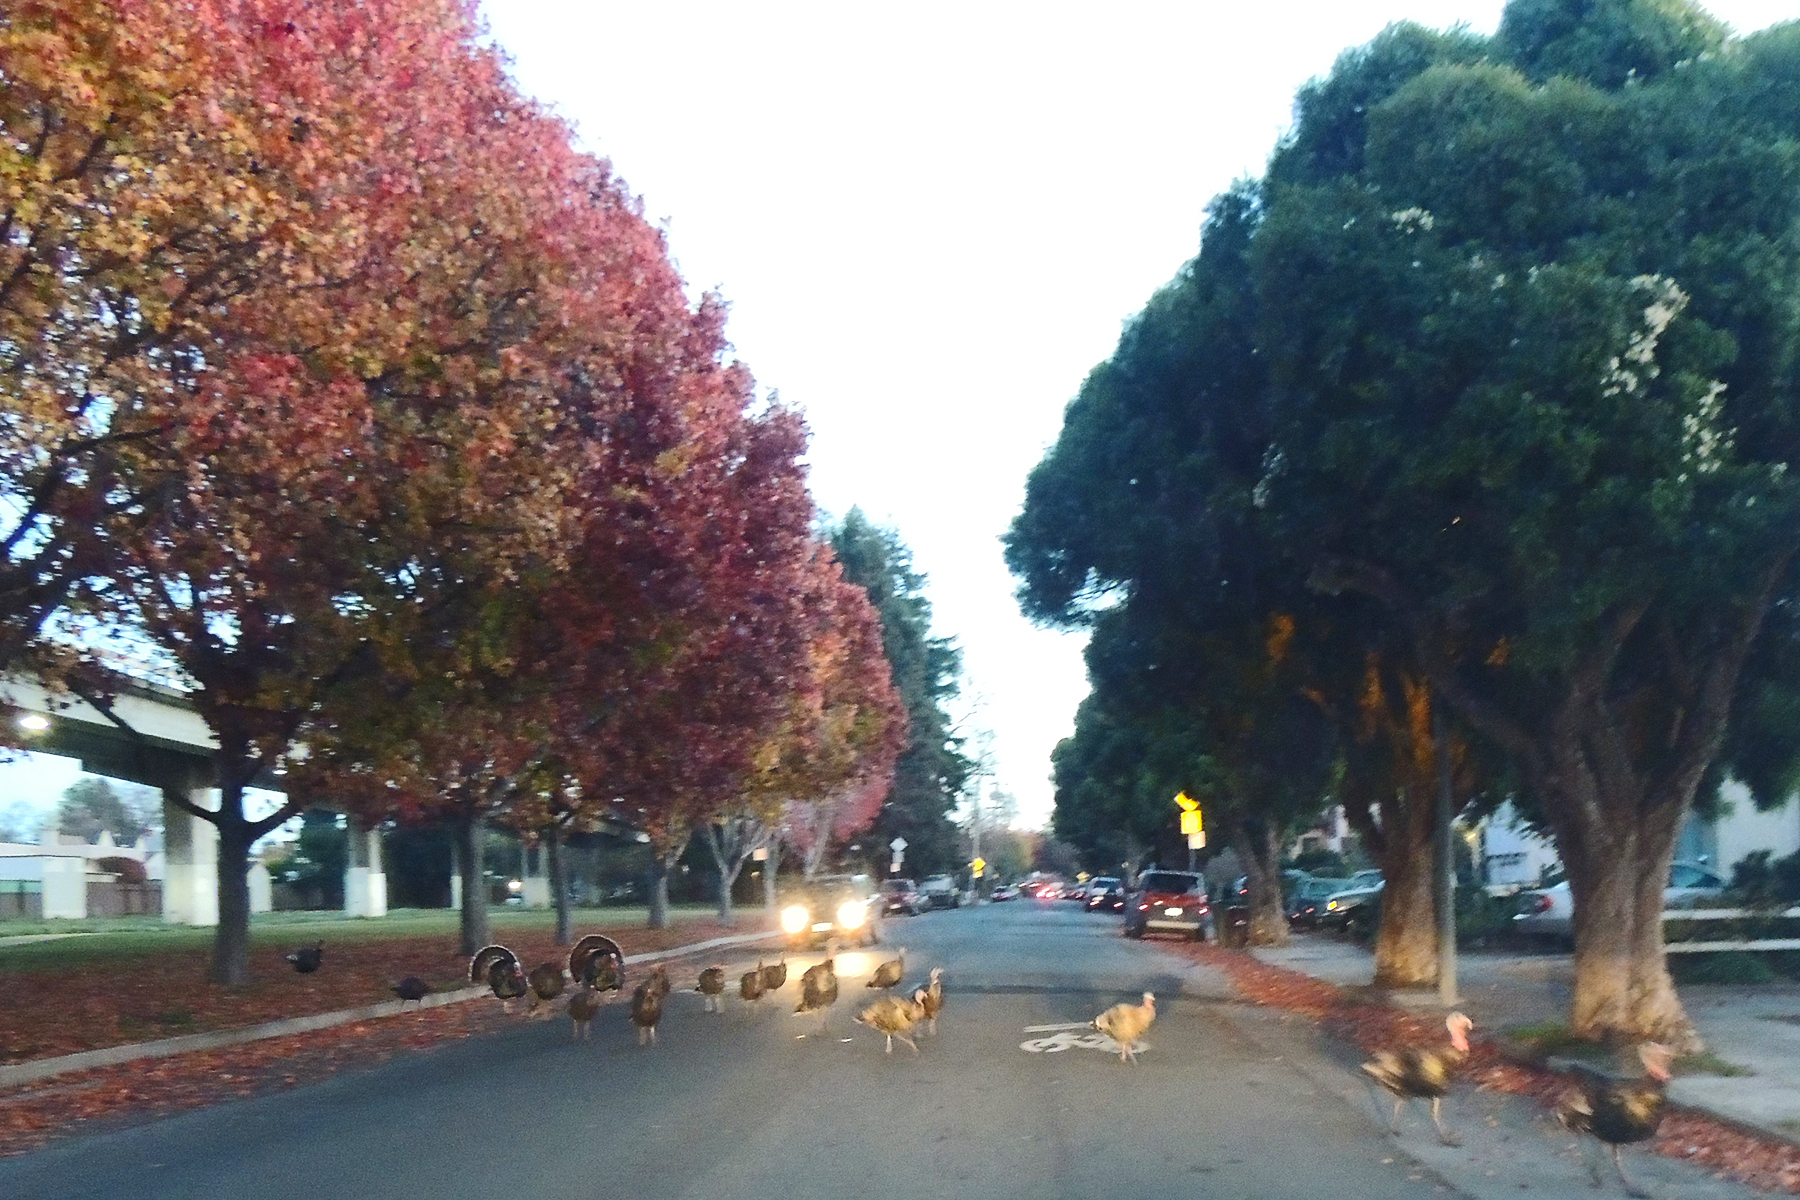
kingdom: Animalia
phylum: Chordata
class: Aves
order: Galliformes
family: Phasianidae
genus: Meleagris
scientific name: Meleagris gallopavo
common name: Wild turkey
